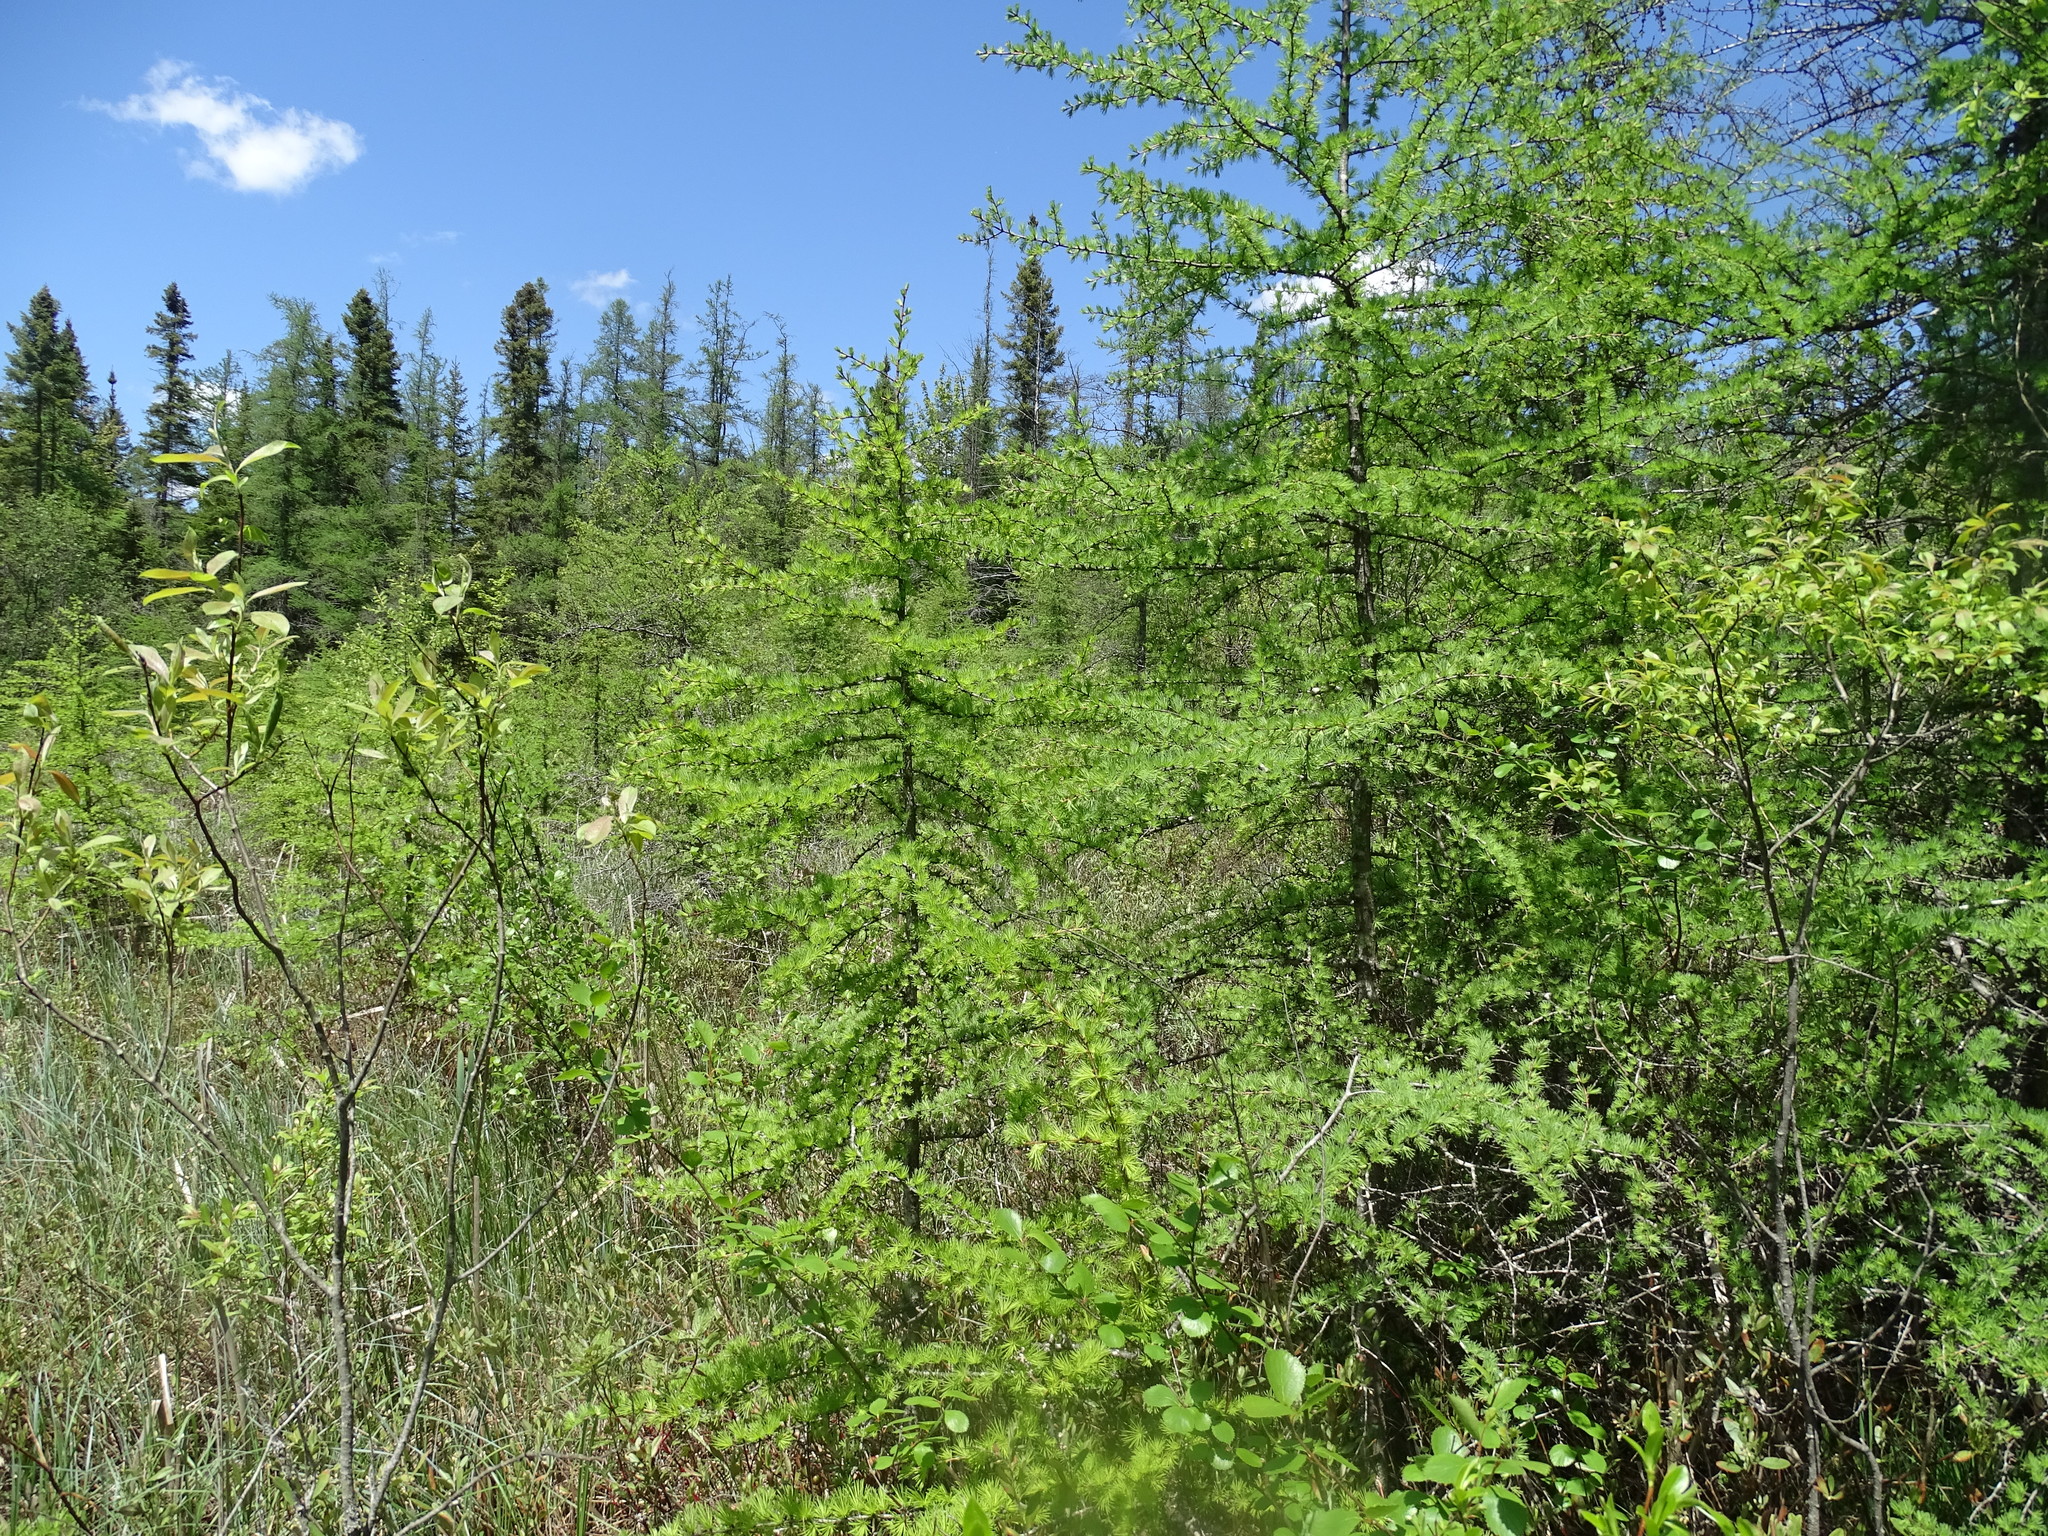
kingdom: Plantae
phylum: Tracheophyta
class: Pinopsida
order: Pinales
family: Pinaceae
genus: Larix
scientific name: Larix laricina
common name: American larch
